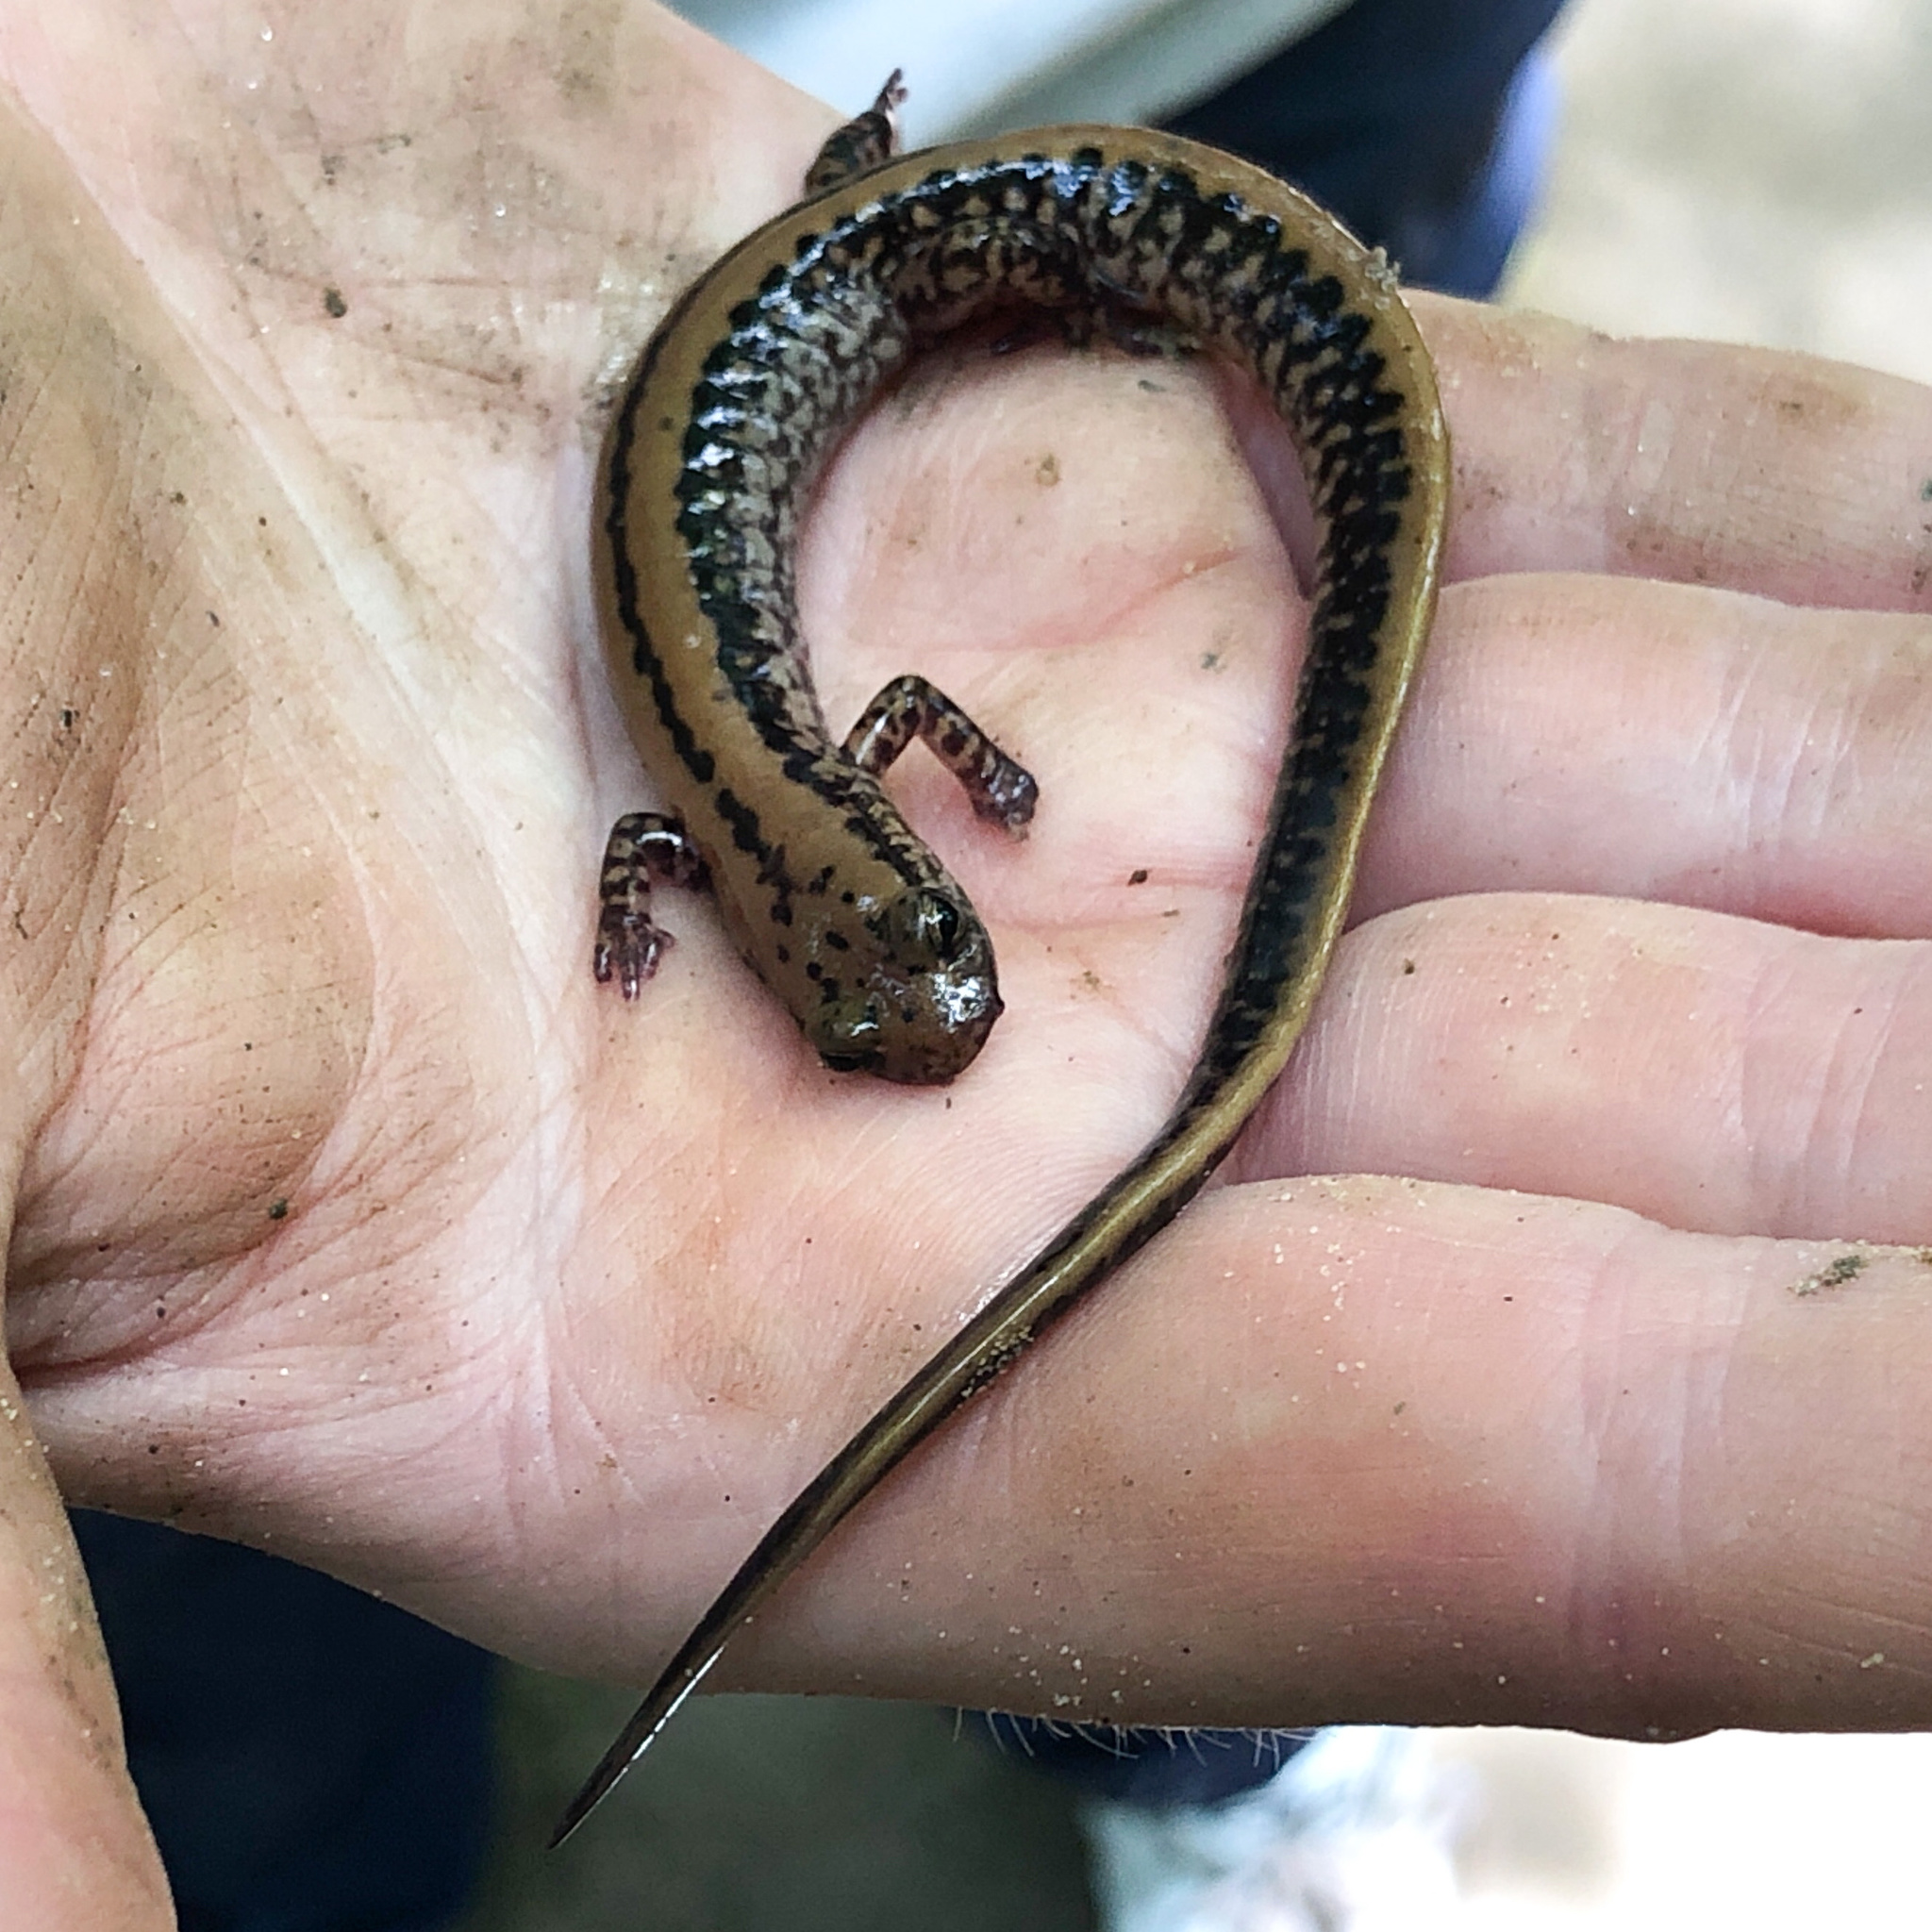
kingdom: Animalia
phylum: Chordata
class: Amphibia
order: Caudata
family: Plethodontidae
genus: Eurycea
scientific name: Eurycea guttolineata
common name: Three-lined salamander
